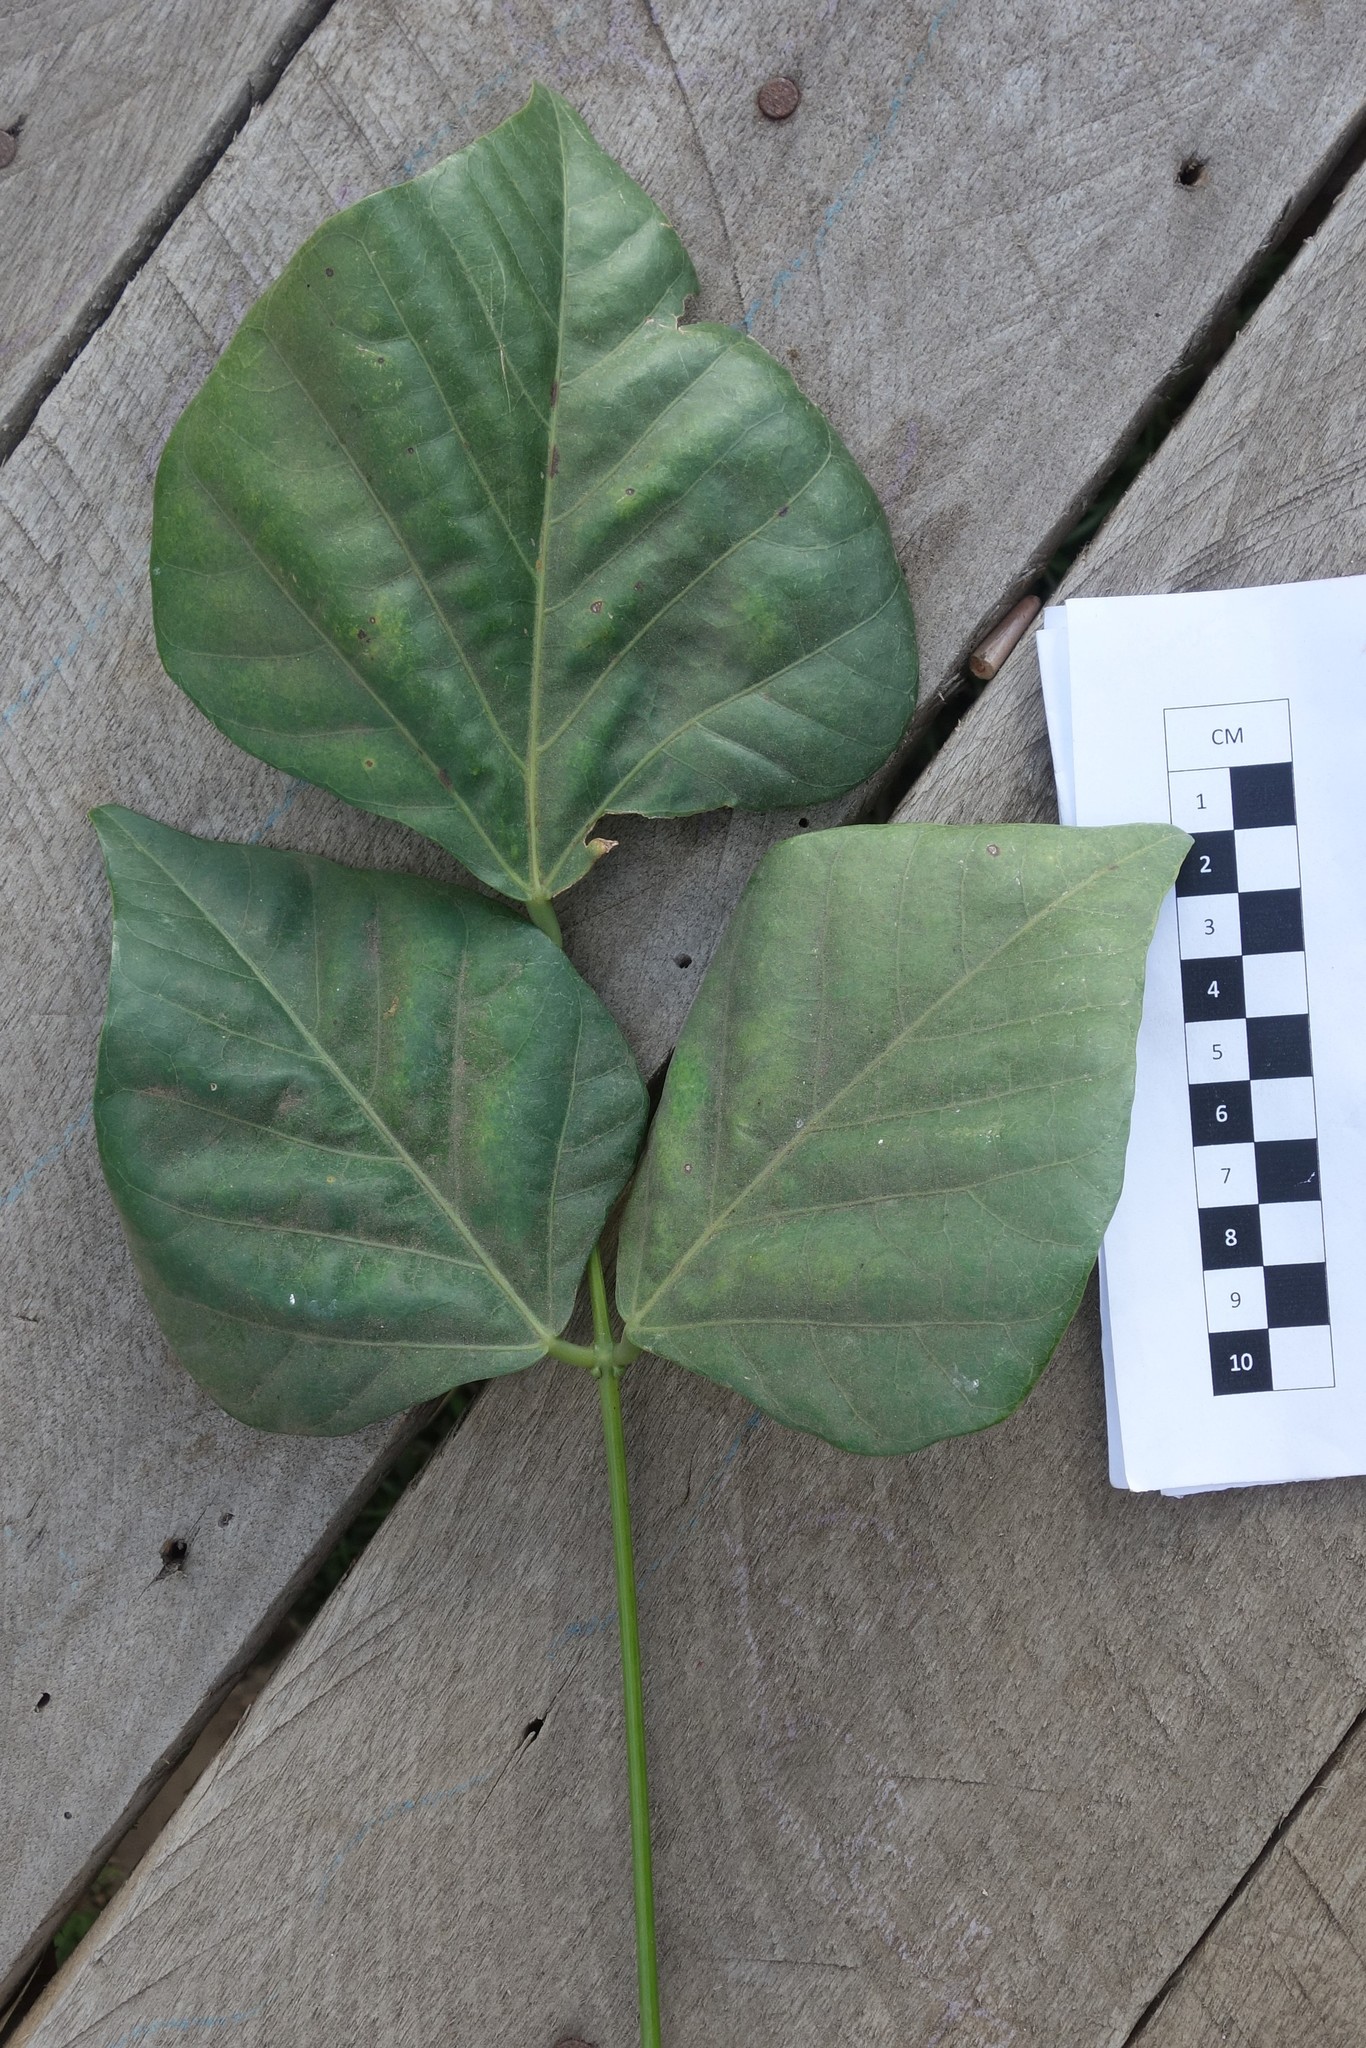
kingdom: Plantae
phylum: Tracheophyta
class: Magnoliopsida
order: Fabales
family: Fabaceae
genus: Erythrina
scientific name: Erythrina variegata
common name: Indian coral tree
